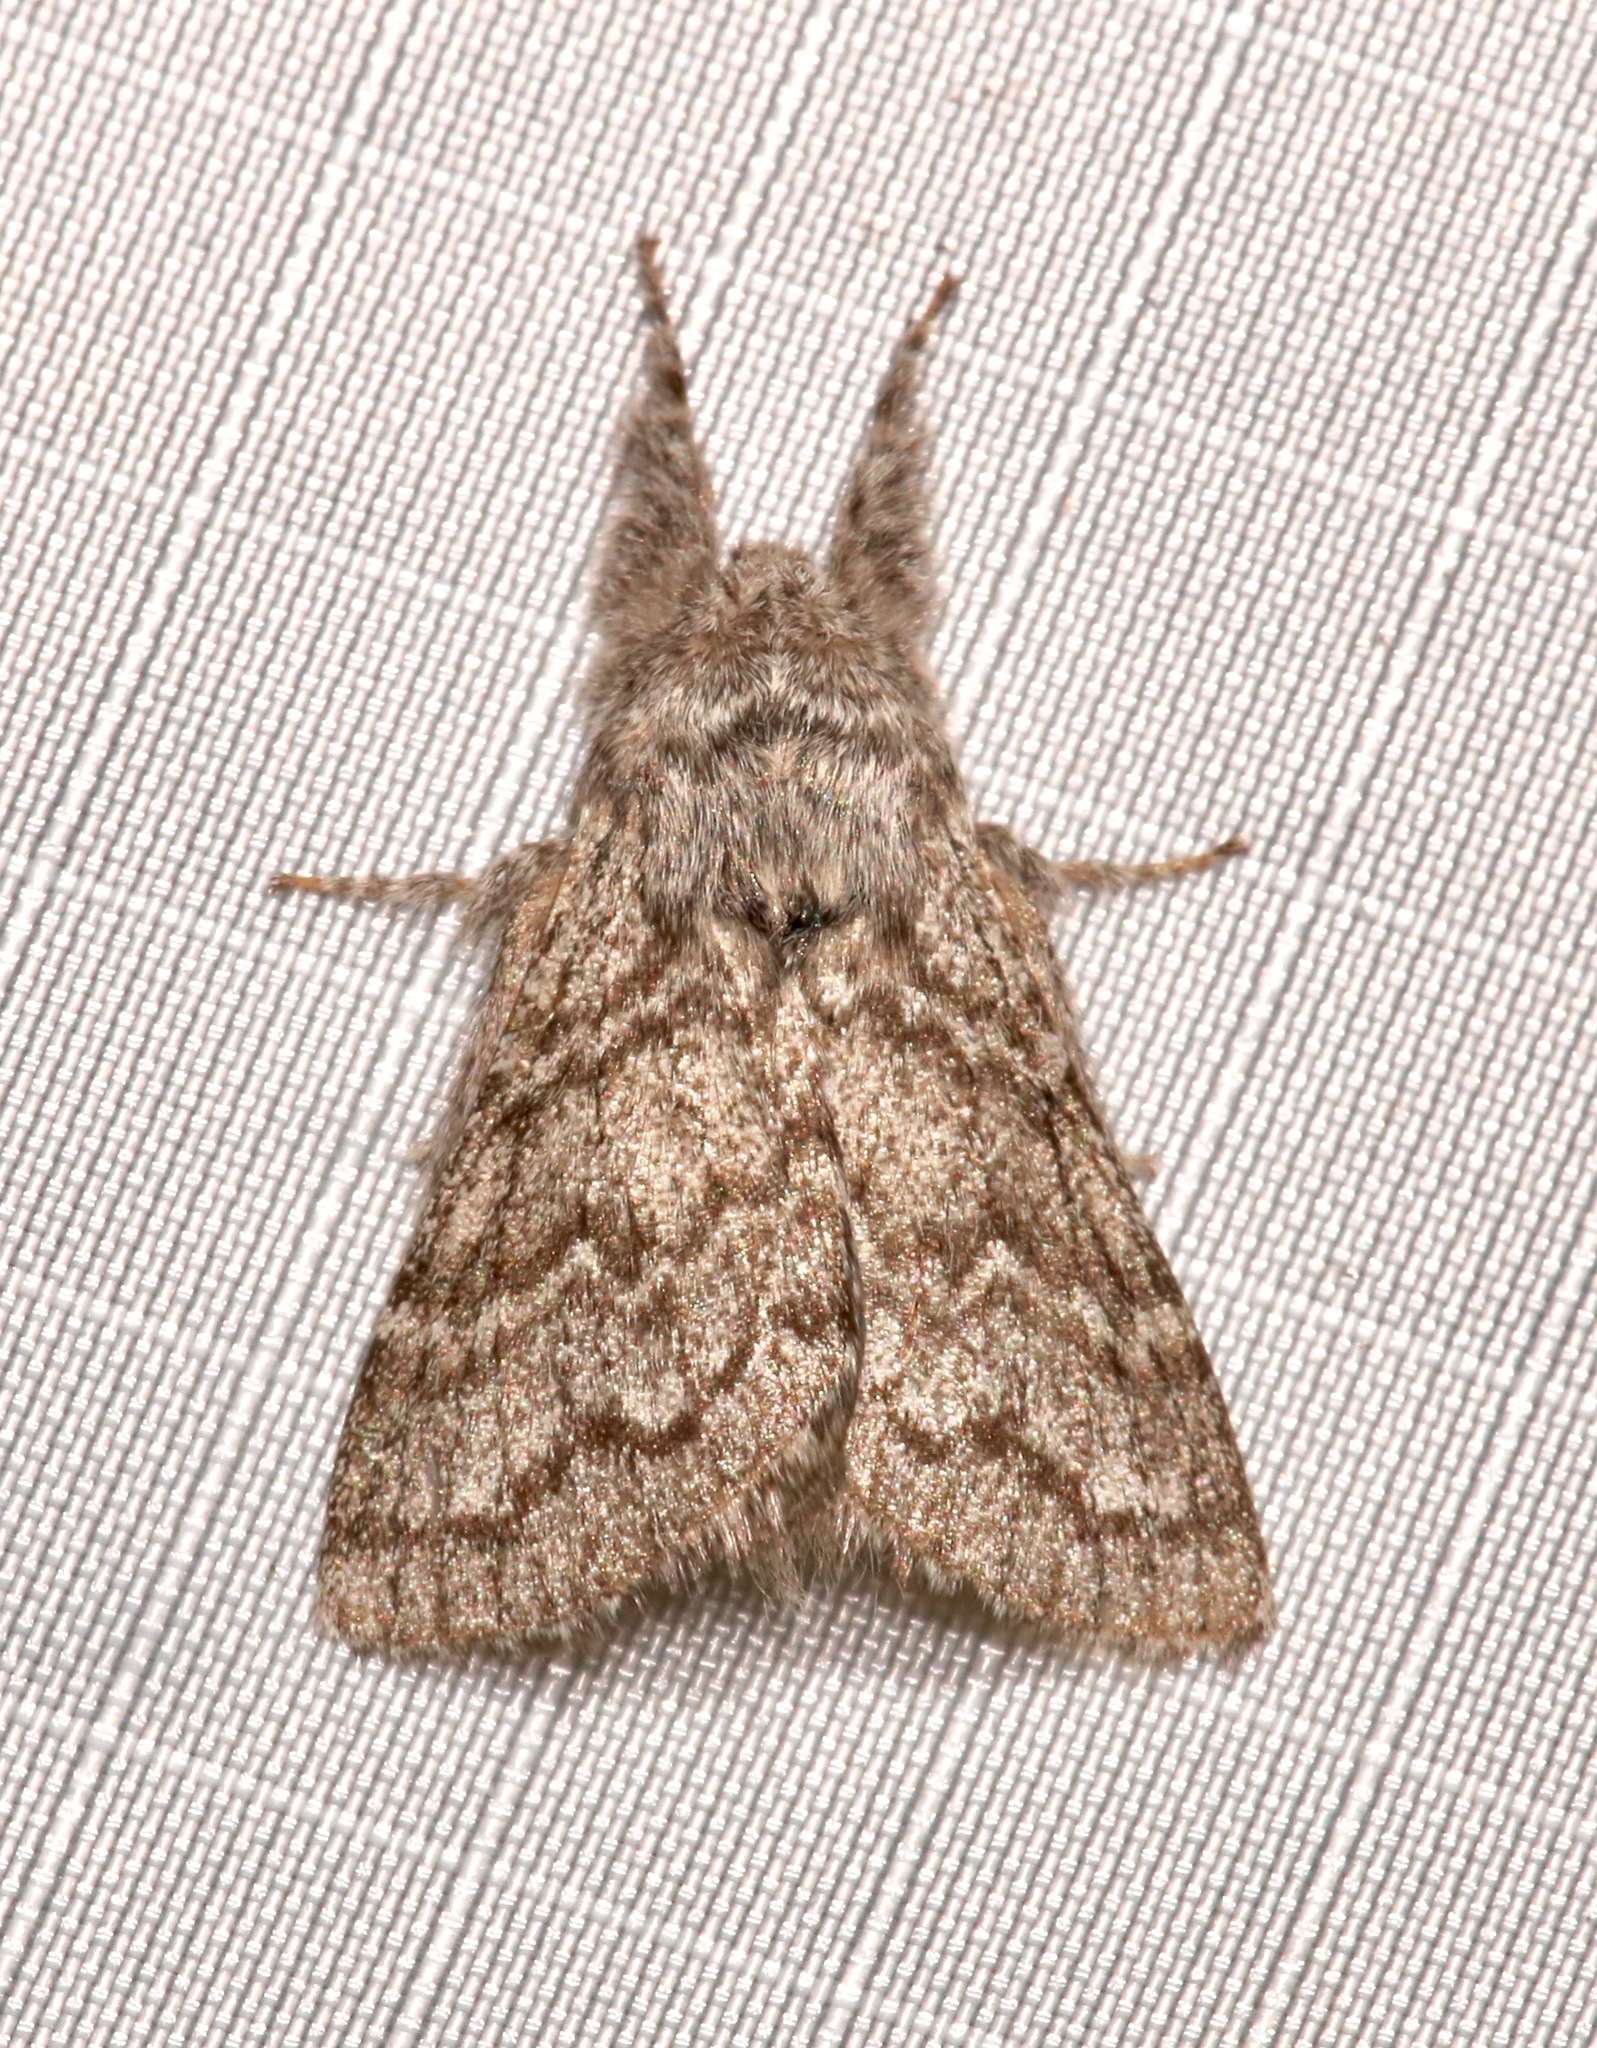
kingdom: Animalia
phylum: Arthropoda
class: Insecta
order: Lepidoptera
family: Lasiocampidae
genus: Hypopacha
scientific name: Hypopacha grisea
